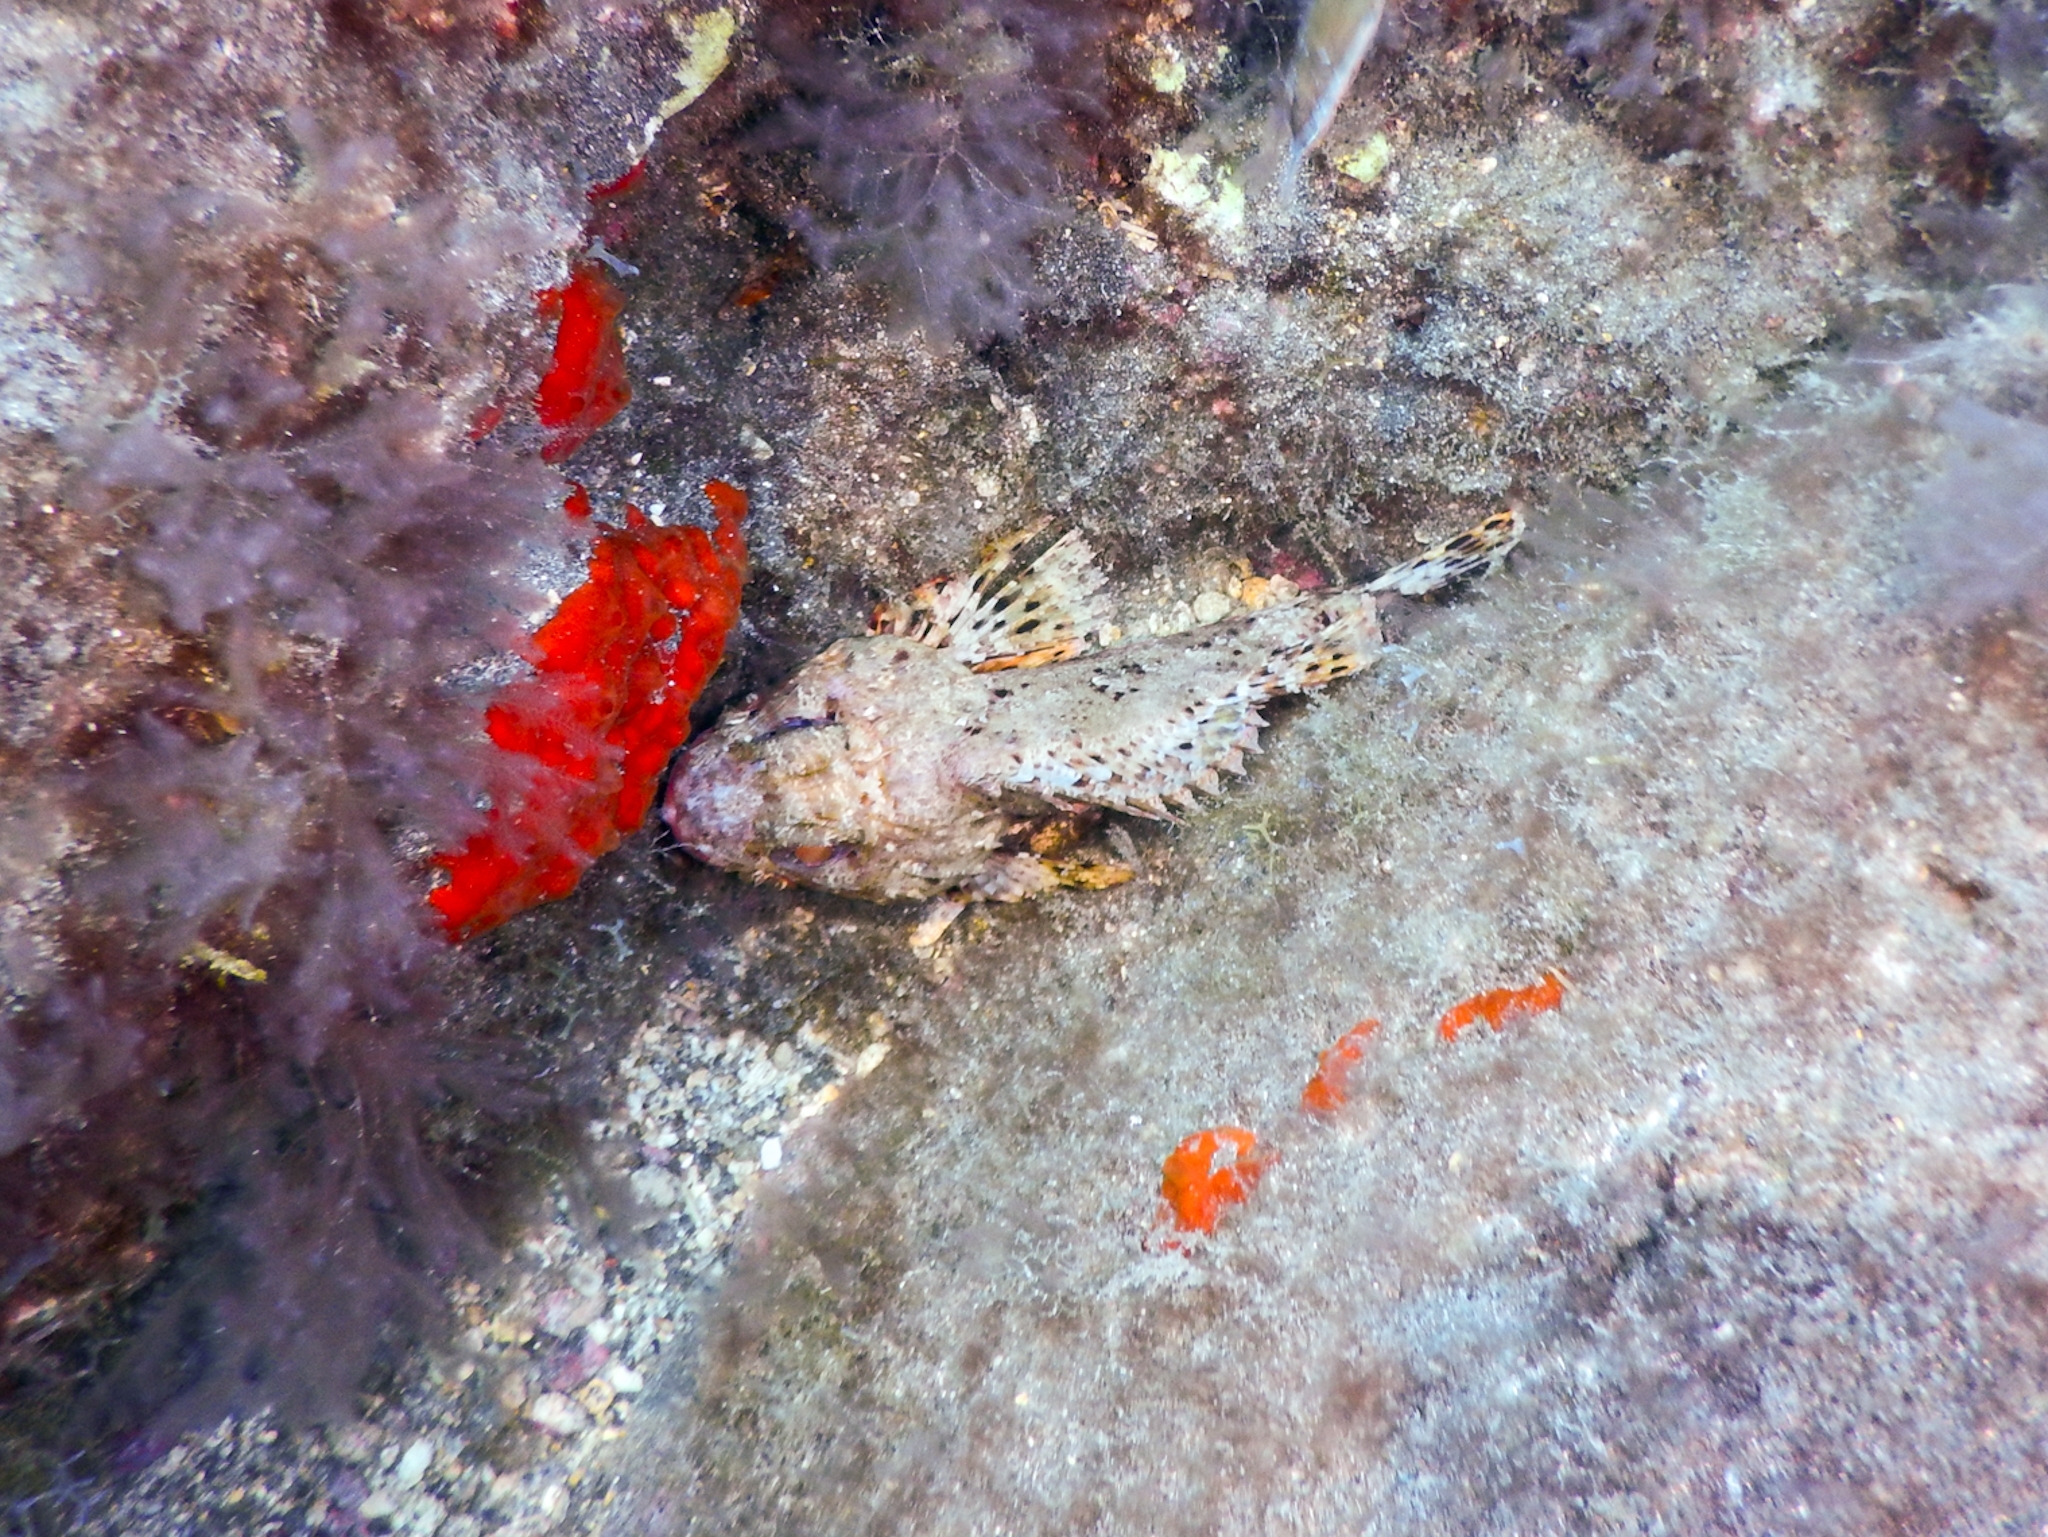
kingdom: Animalia
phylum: Chordata
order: Scorpaeniformes
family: Scorpaenidae
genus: Scorpaena
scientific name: Scorpaena notata
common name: Small red scorpionfish
